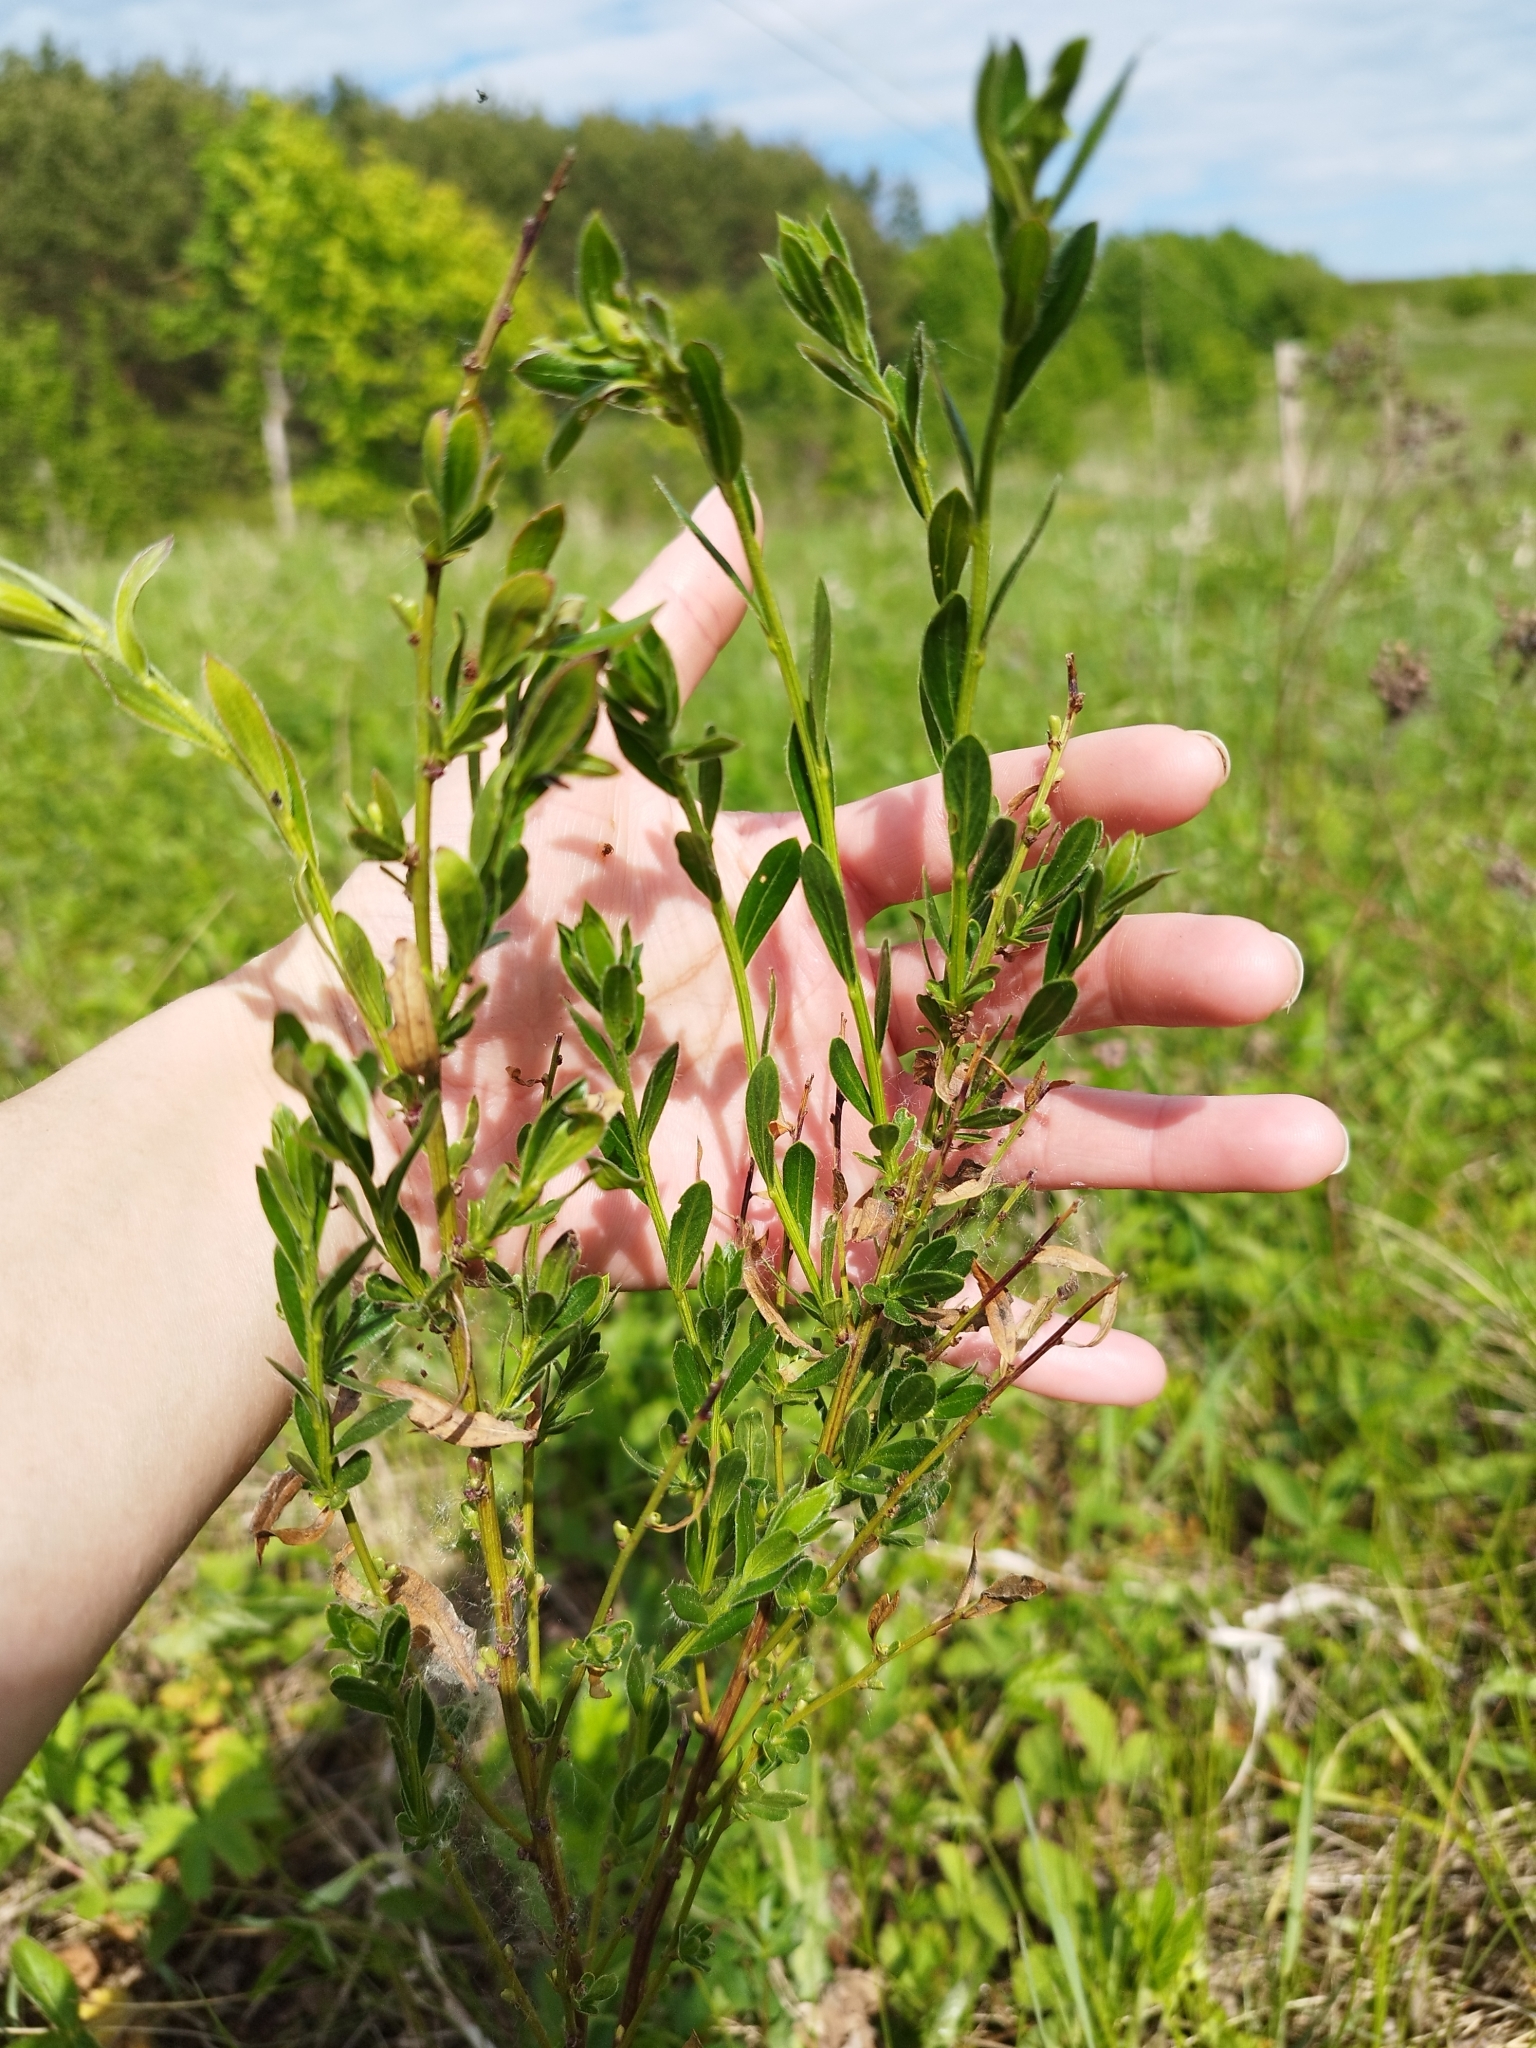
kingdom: Plantae
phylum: Tracheophyta
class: Magnoliopsida
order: Fabales
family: Fabaceae
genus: Genista
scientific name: Genista tinctoria
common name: Dyer's greenweed
